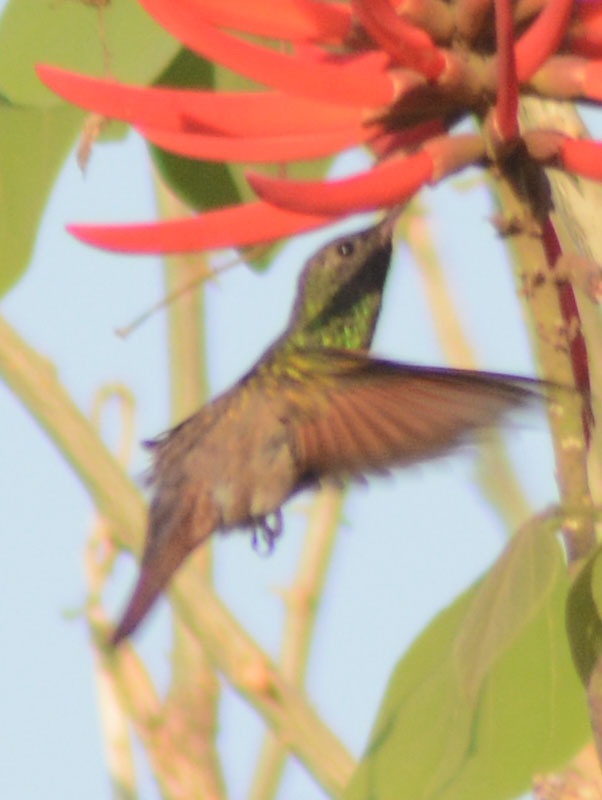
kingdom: Animalia
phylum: Chordata
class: Aves
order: Apodiformes
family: Trochilidae
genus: Saucerottia
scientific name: Saucerottia beryllina
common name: Berylline hummingbird
